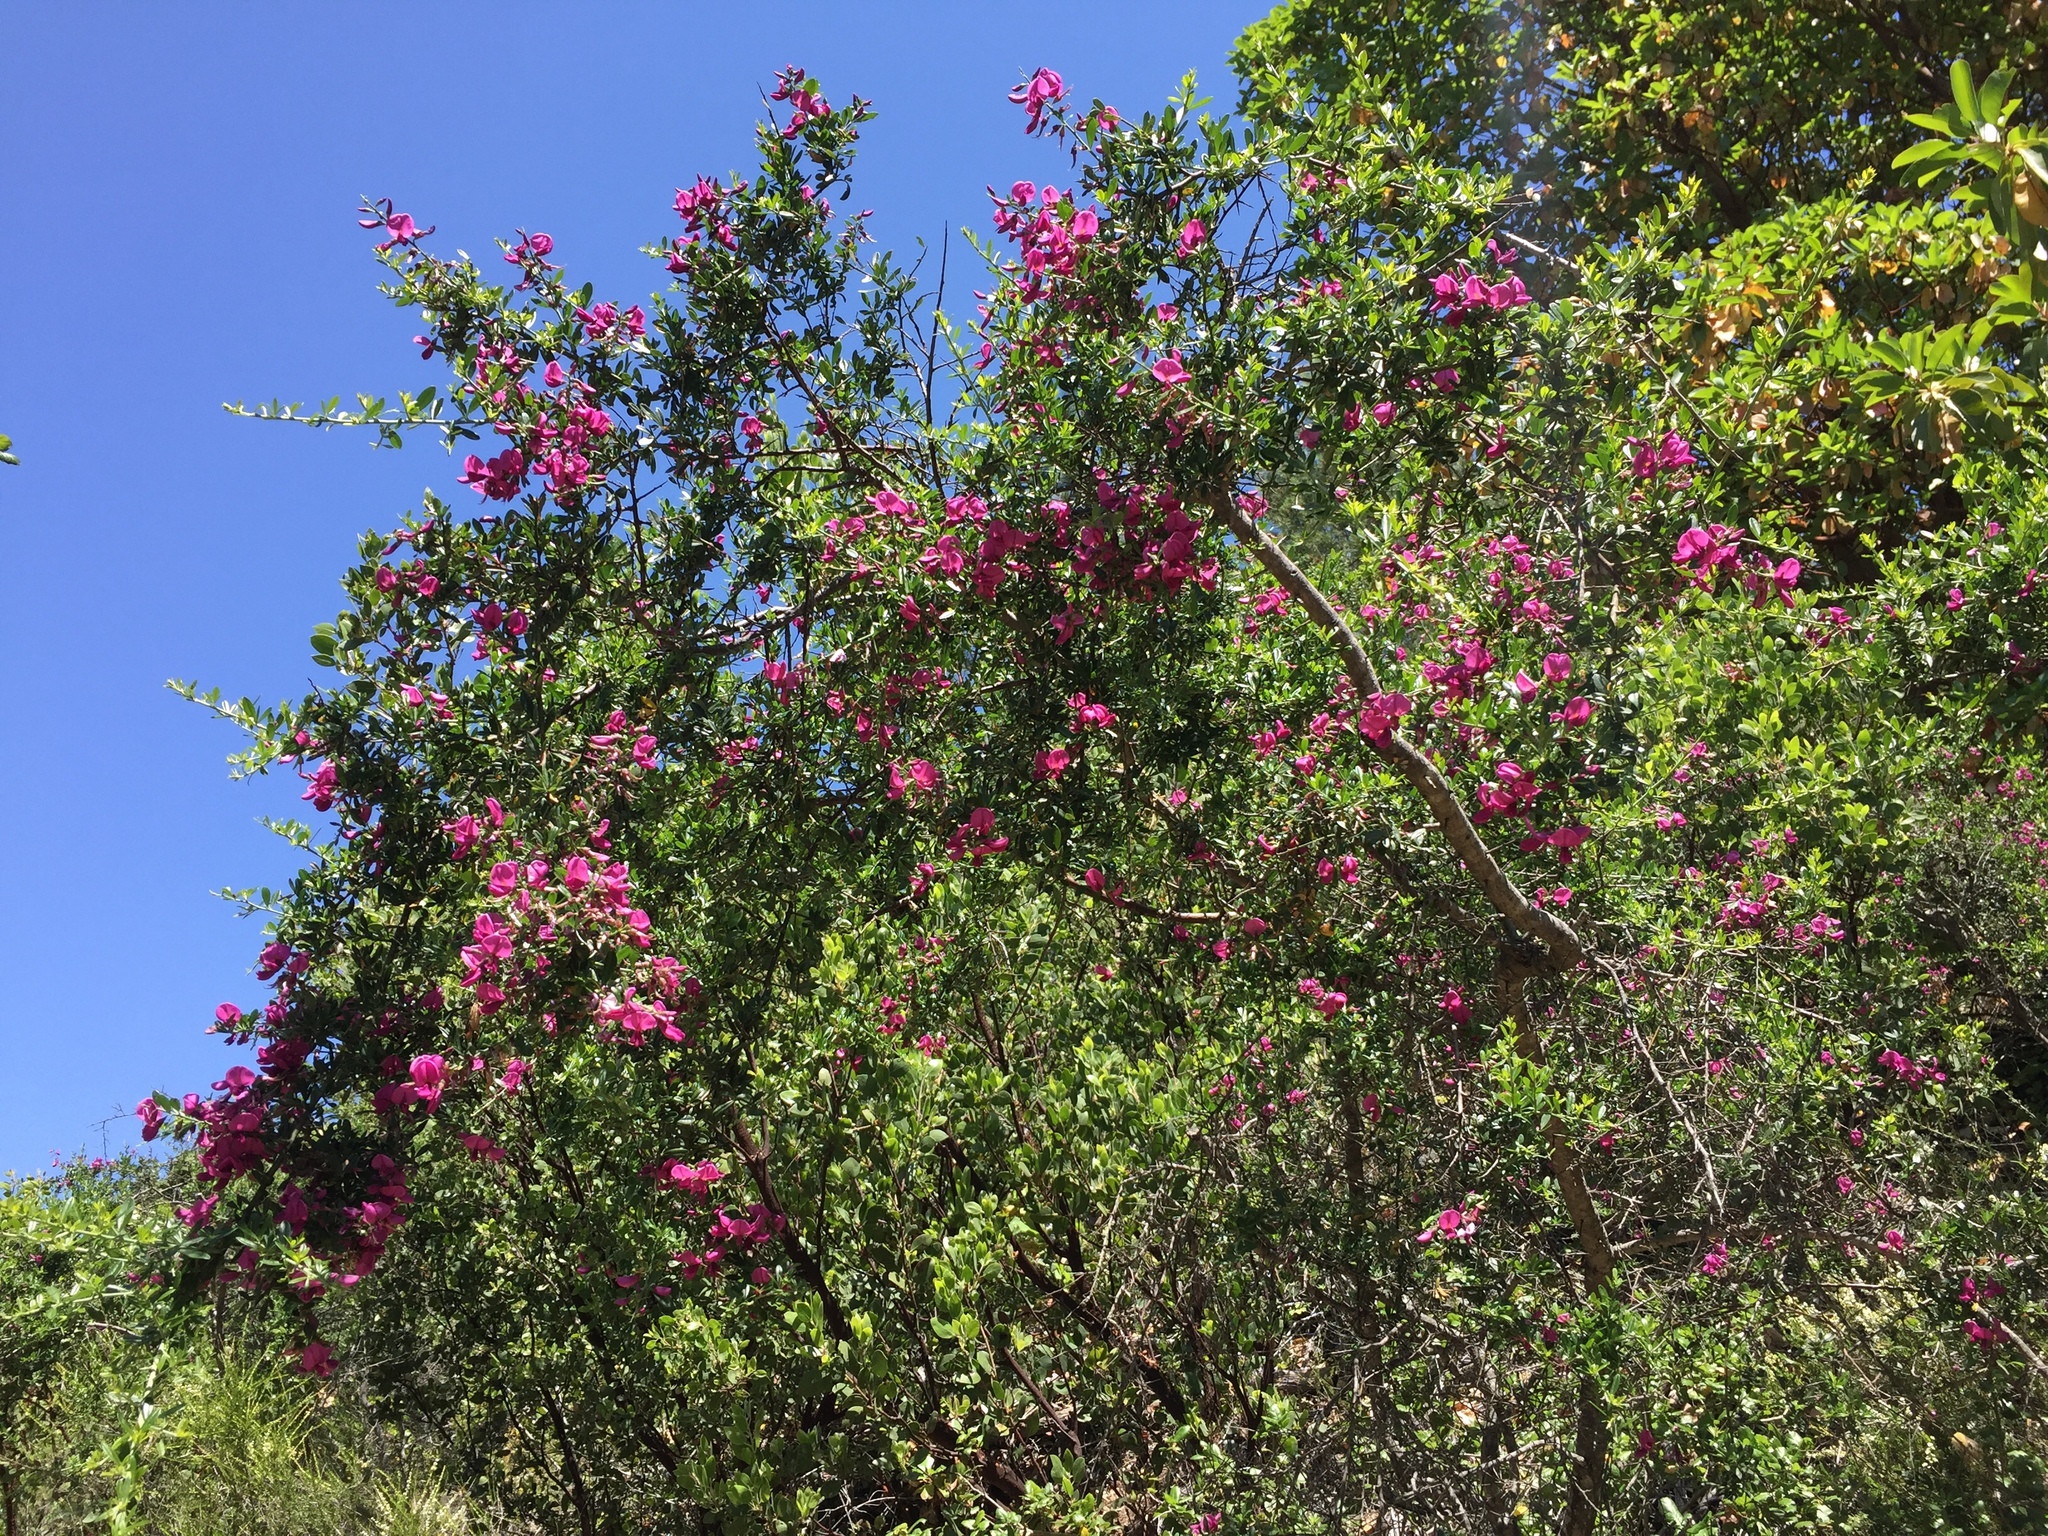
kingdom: Plantae
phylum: Tracheophyta
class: Magnoliopsida
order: Fabales
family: Fabaceae
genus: Pickeringia
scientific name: Pickeringia montana
